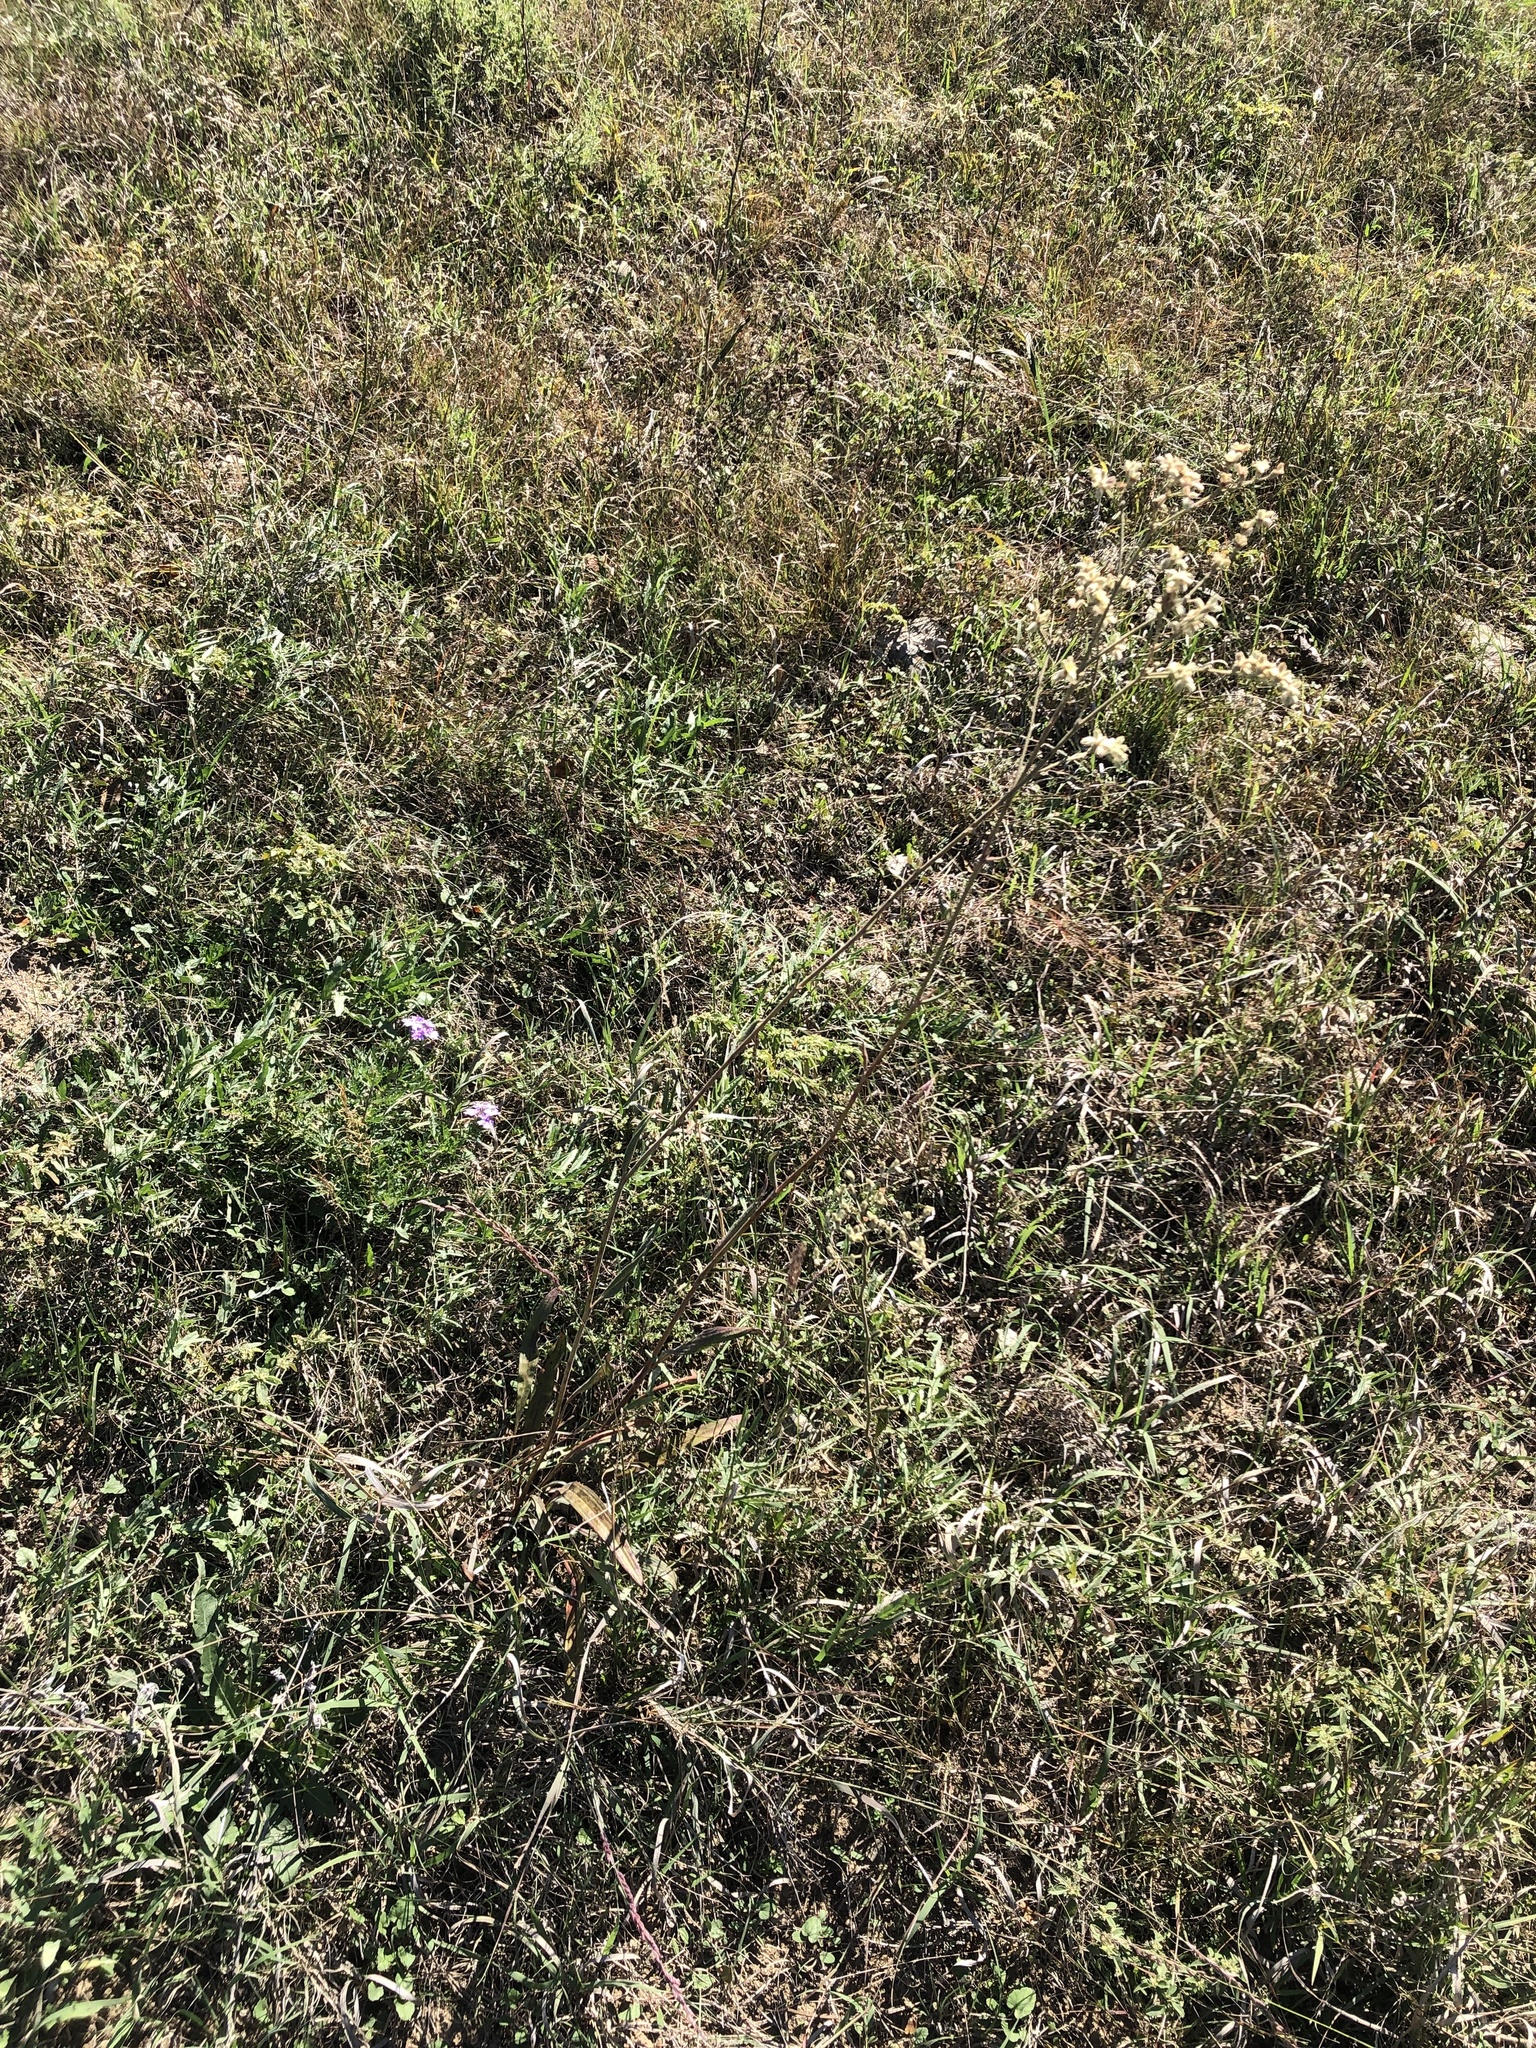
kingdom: Plantae
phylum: Tracheophyta
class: Magnoliopsida
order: Caryophyllales
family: Polygonaceae
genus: Eriogonum
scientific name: Eriogonum longifolium
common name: Longleaf wild buckwheat
